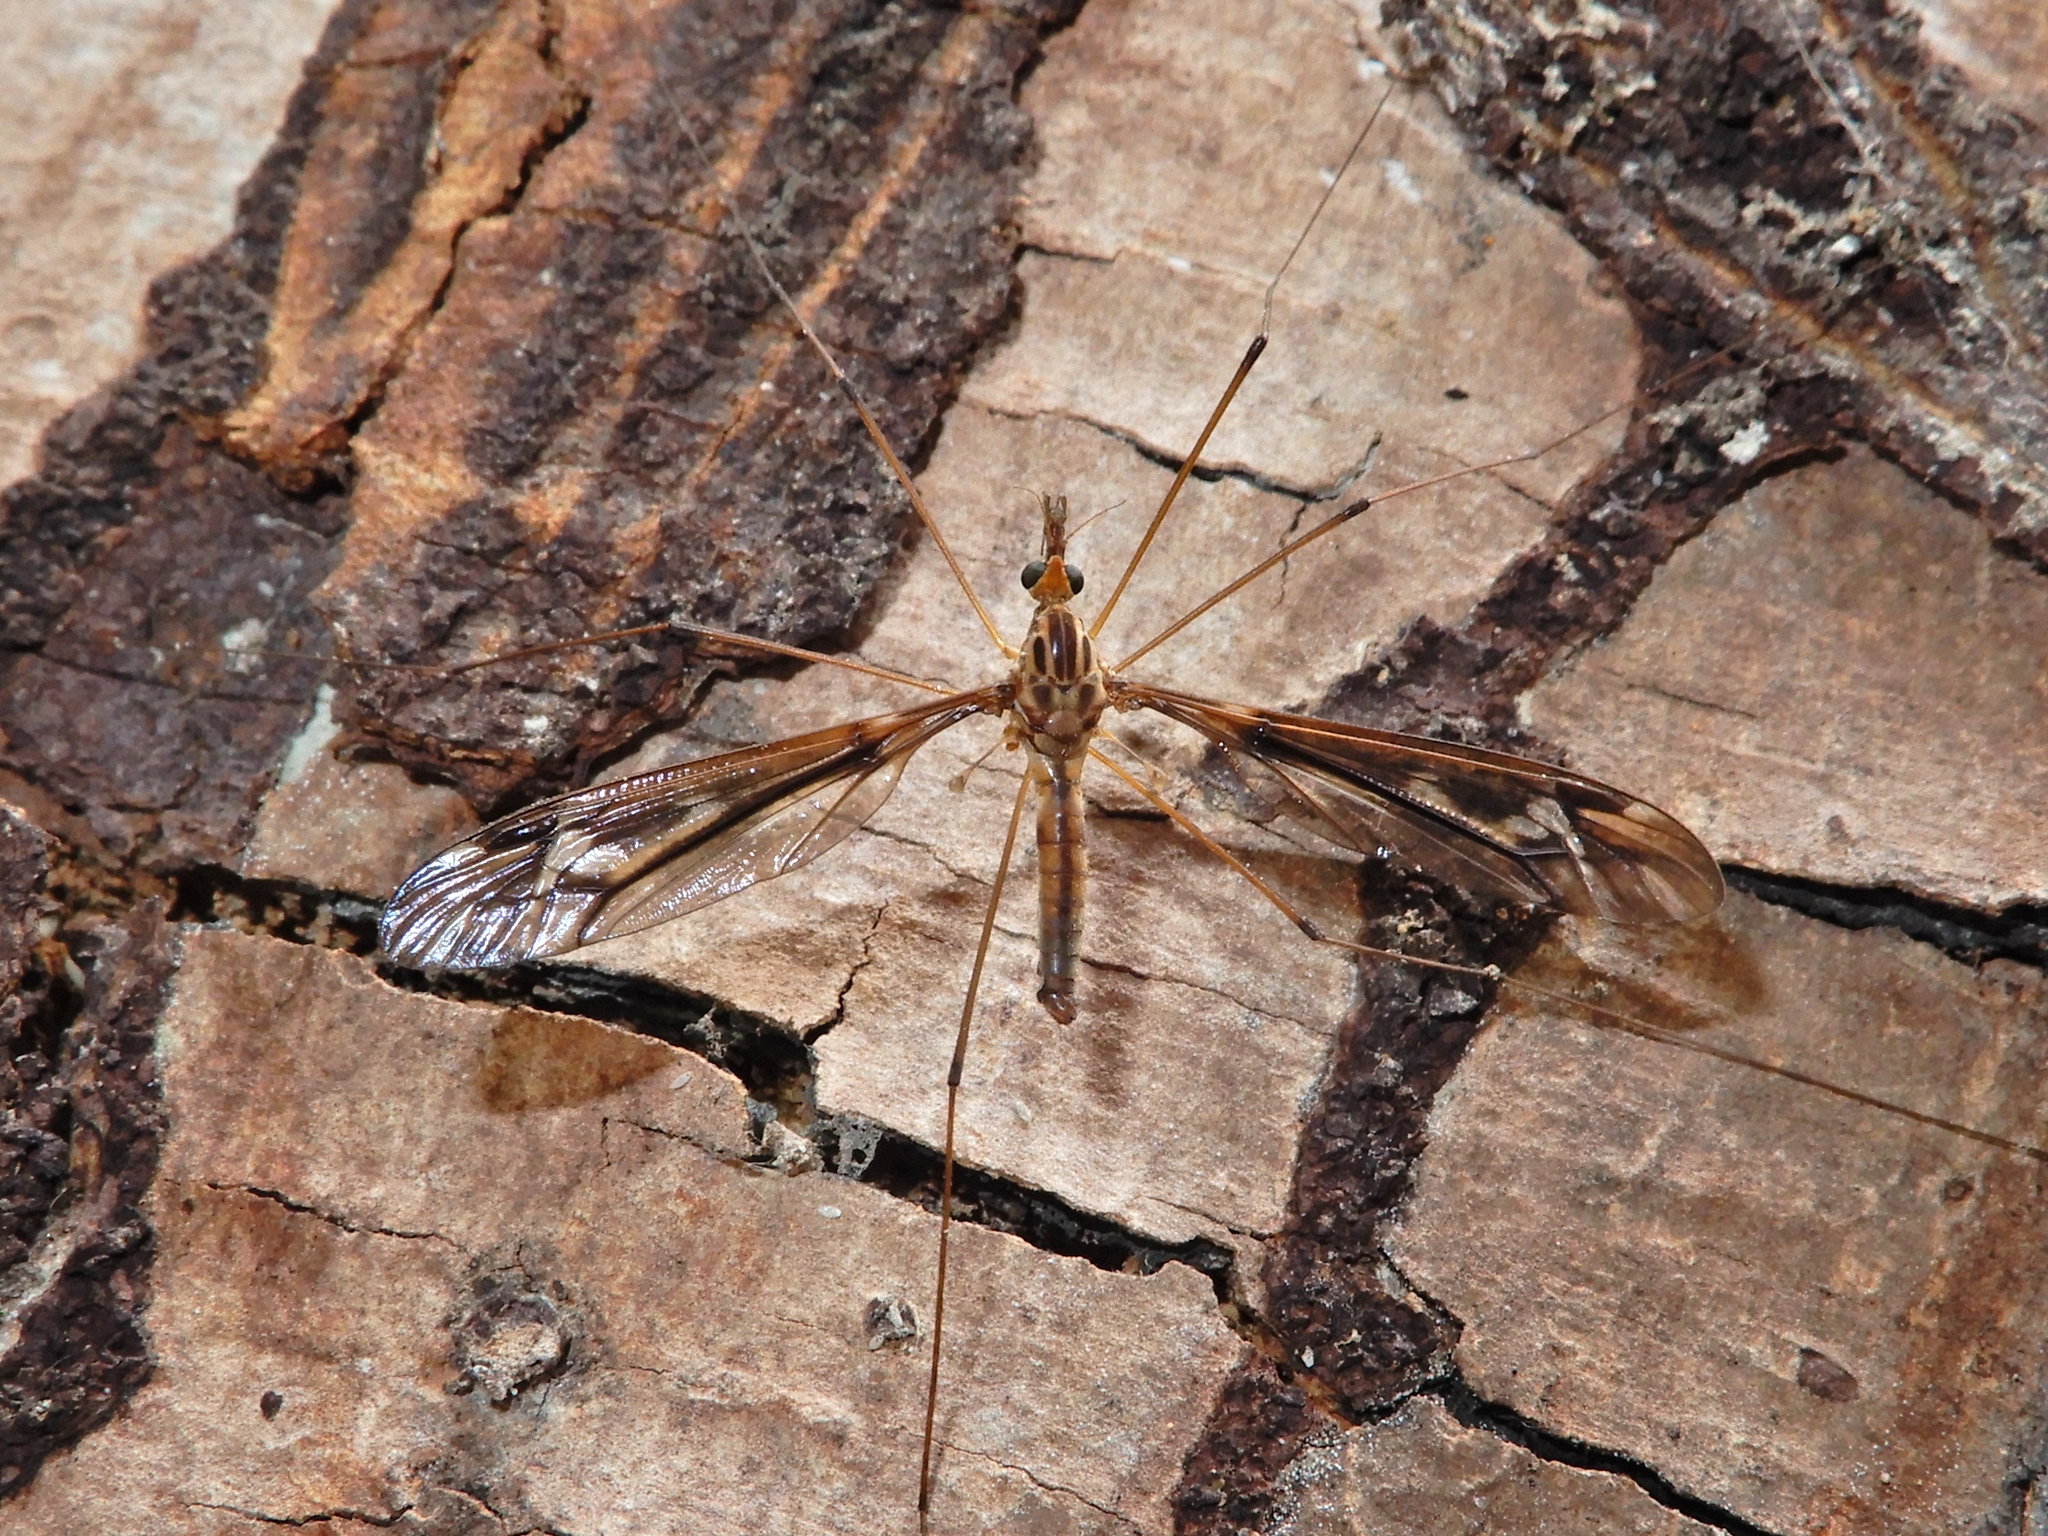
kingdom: Animalia
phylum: Arthropoda
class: Insecta
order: Diptera
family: Tipulidae
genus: Leptotarsus
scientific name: Leptotarsus huttoni
